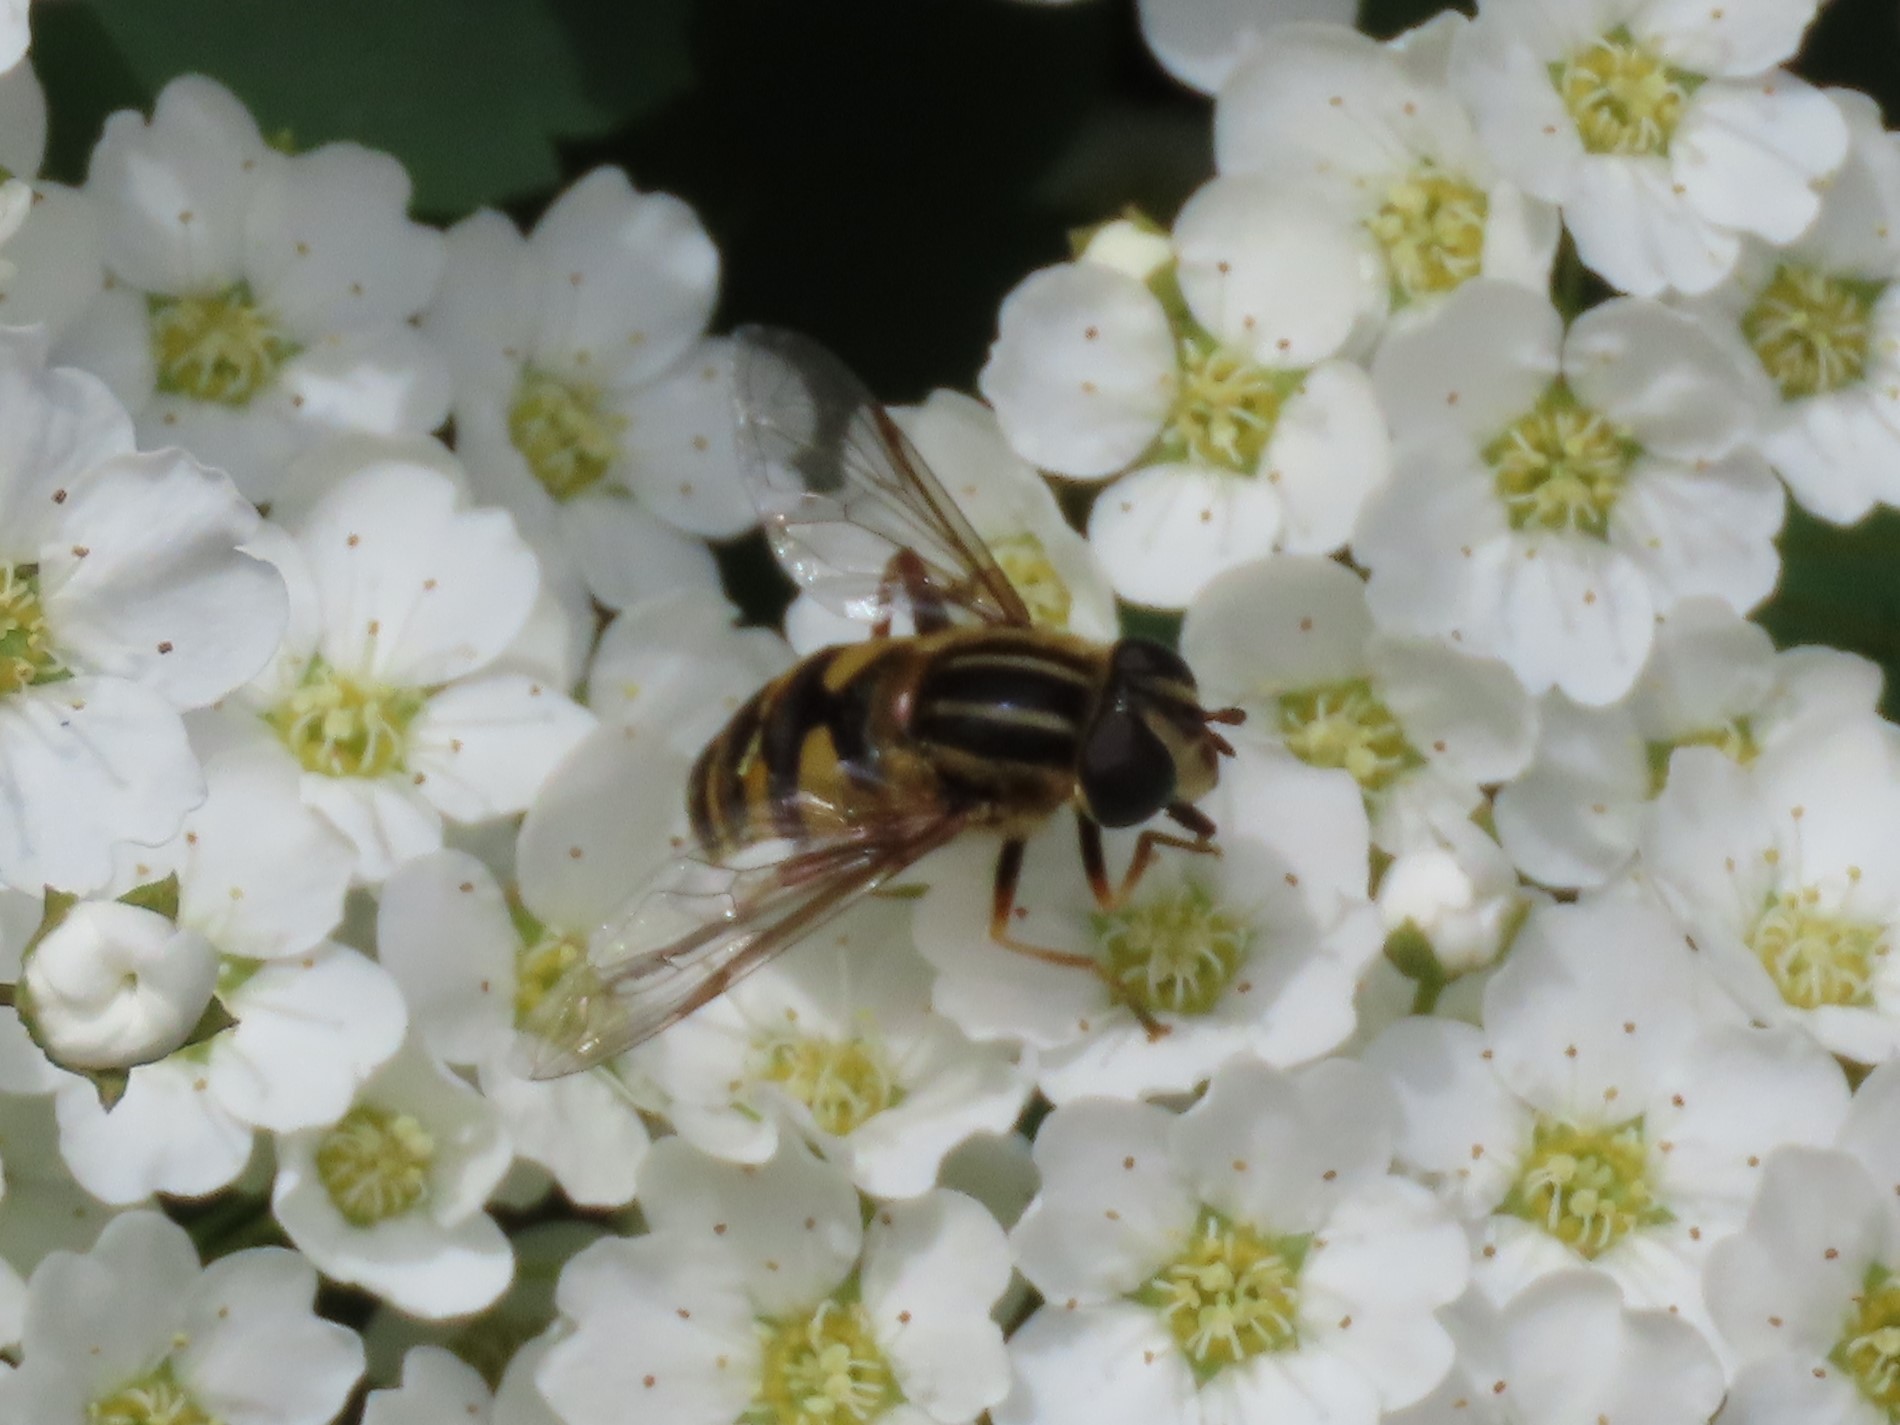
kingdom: Animalia
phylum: Arthropoda
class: Insecta
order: Diptera
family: Syrphidae
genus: Helophilus
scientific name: Helophilus fasciatus
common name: Narrow-headed marsh fly
